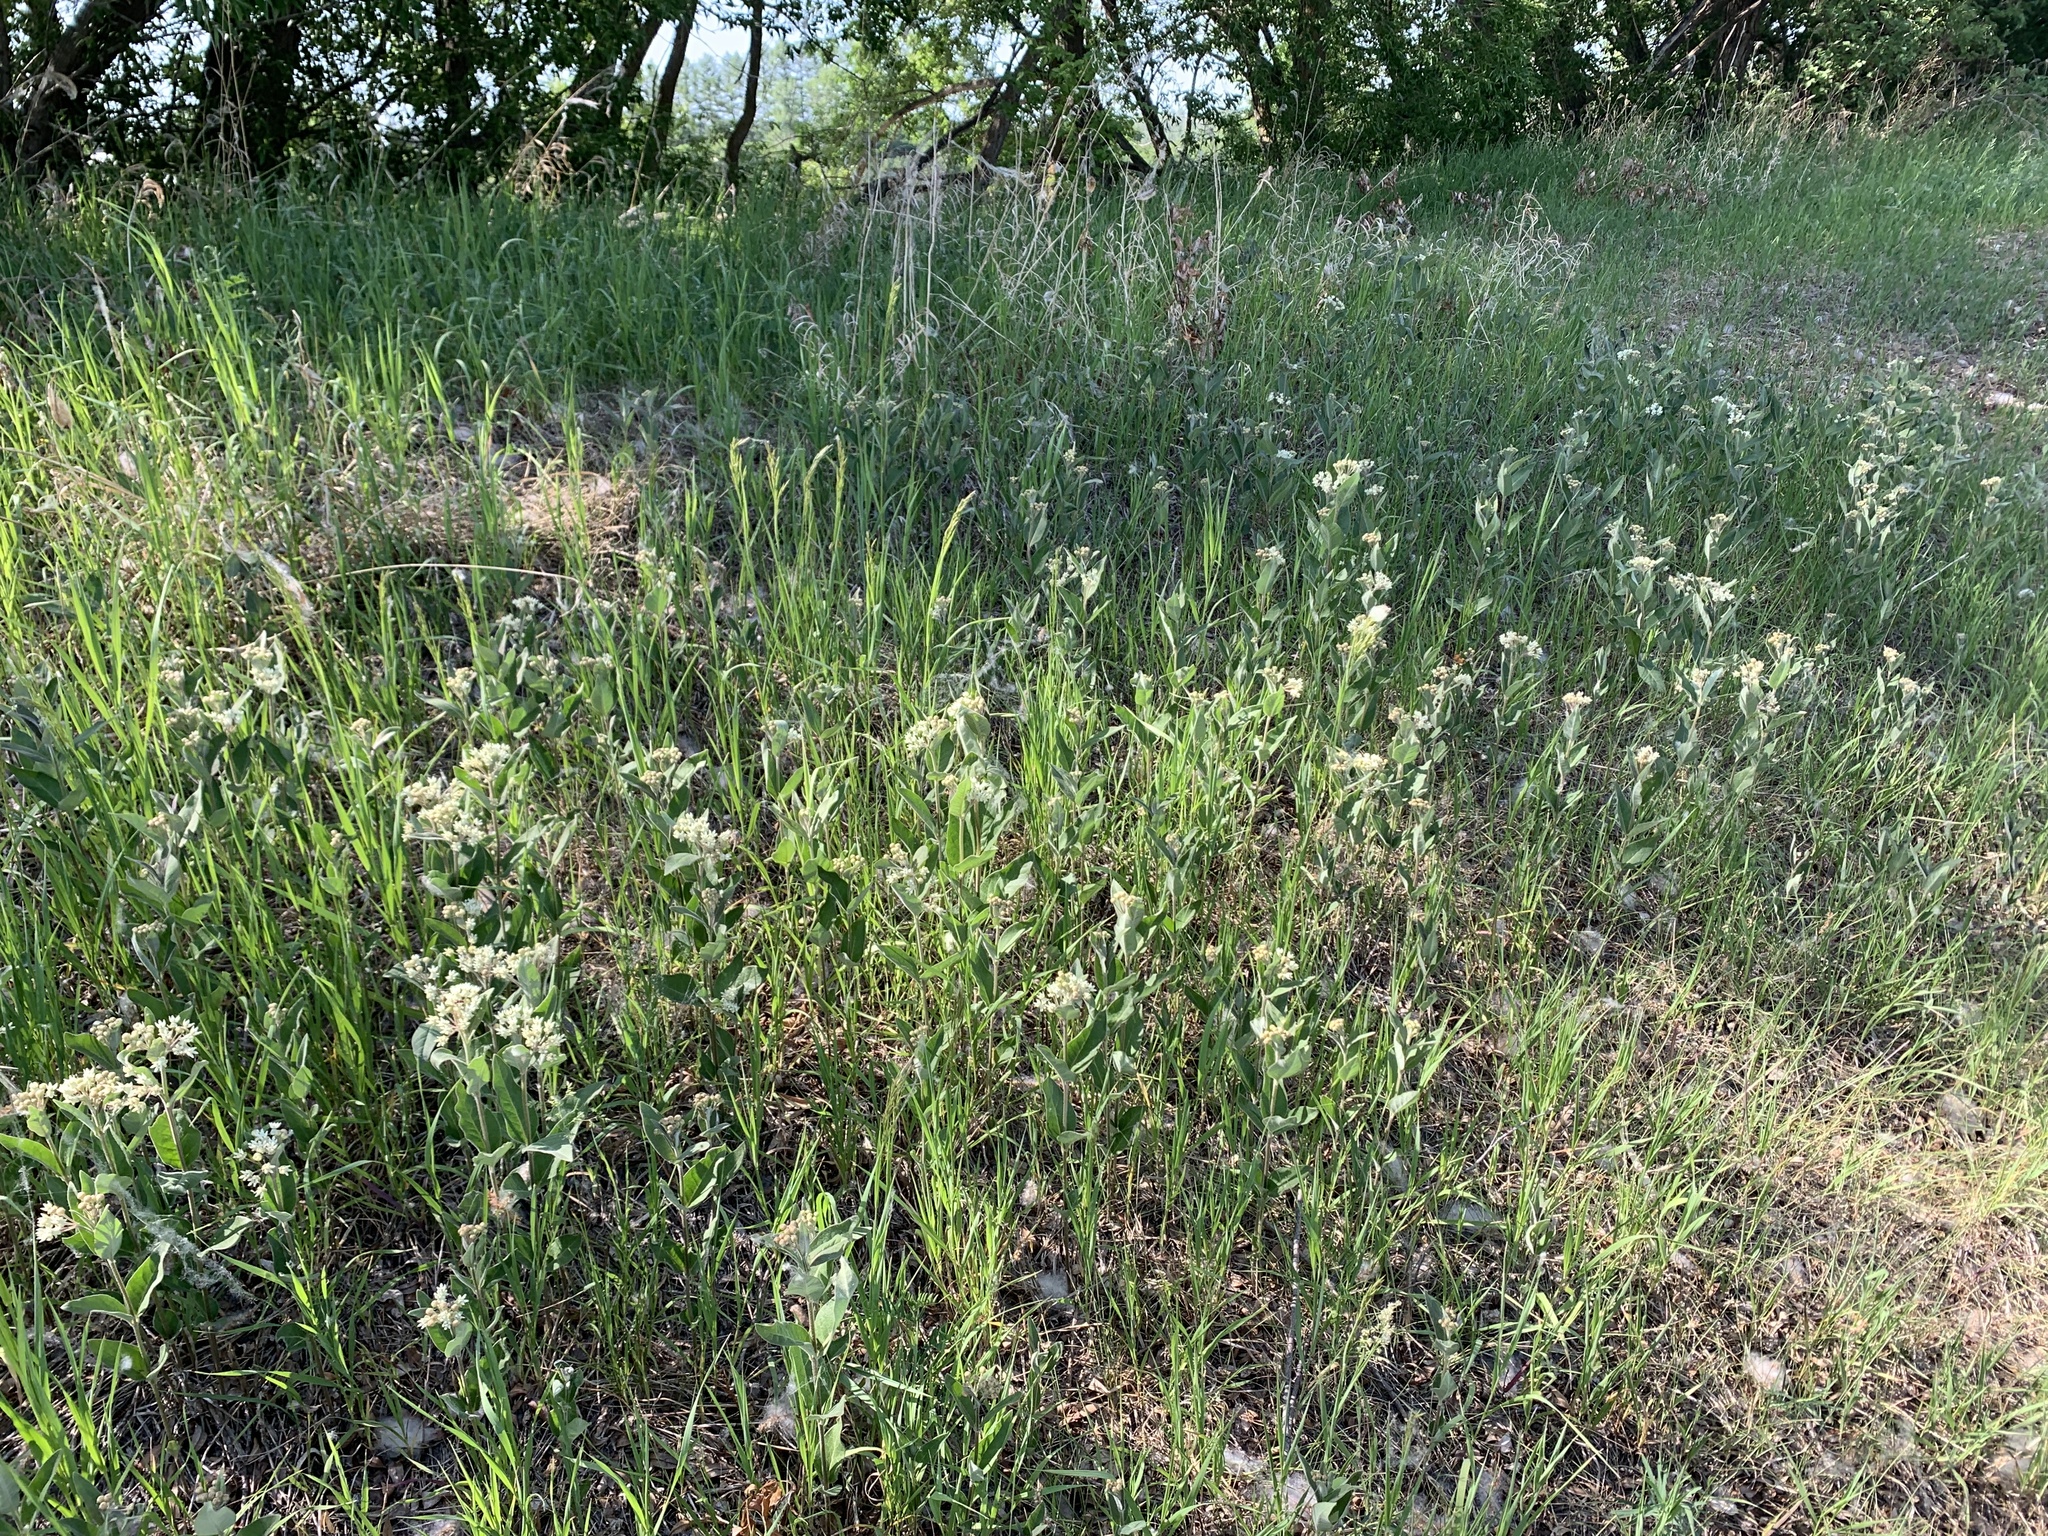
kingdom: Plantae
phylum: Tracheophyta
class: Magnoliopsida
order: Gentianales
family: Apocynaceae
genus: Asclepias
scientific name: Asclepias ovalifolia
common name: Dwarf milkweed
